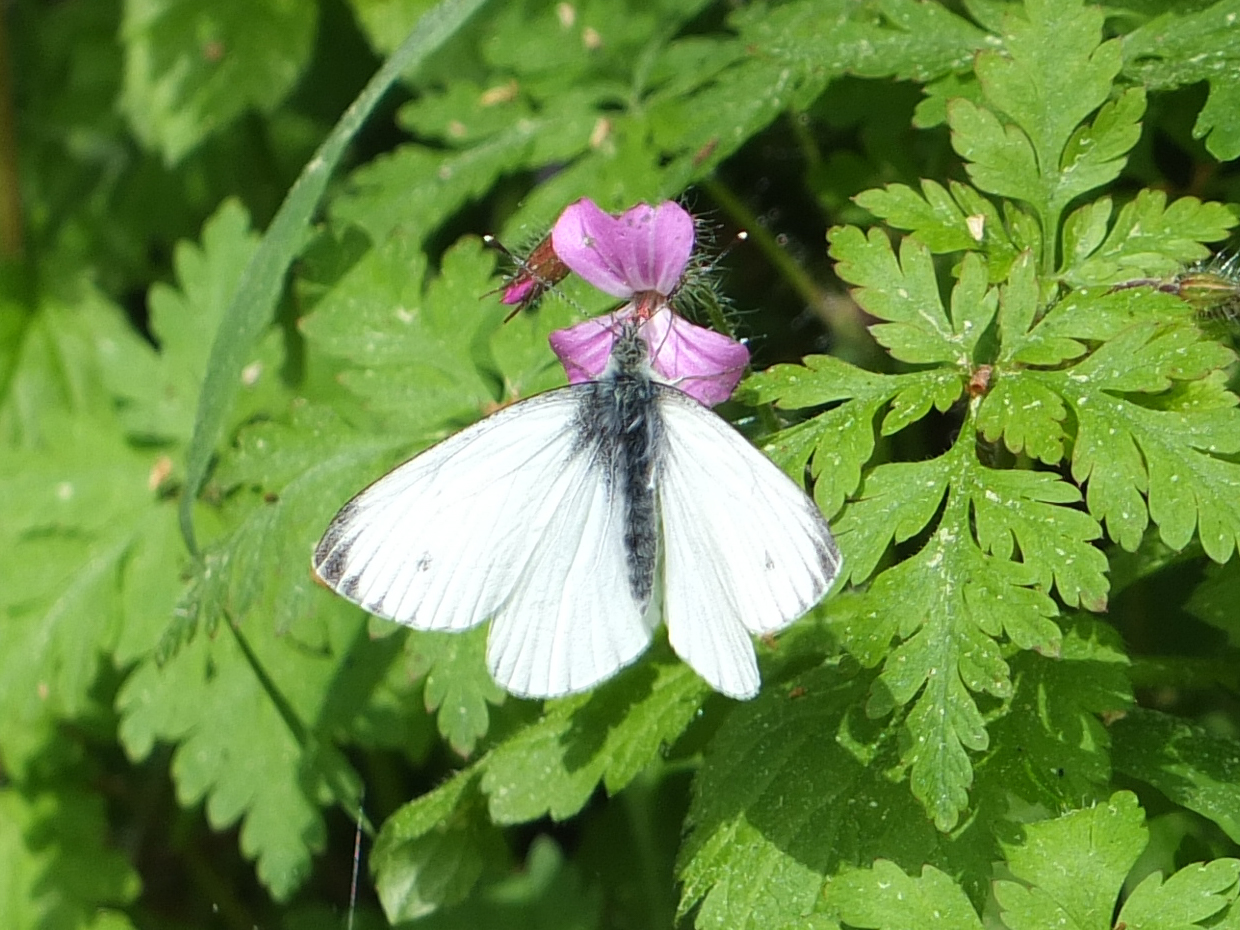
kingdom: Animalia
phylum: Arthropoda
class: Insecta
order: Lepidoptera
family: Pieridae
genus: Pieris
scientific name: Pieris napi
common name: Green-veined white
